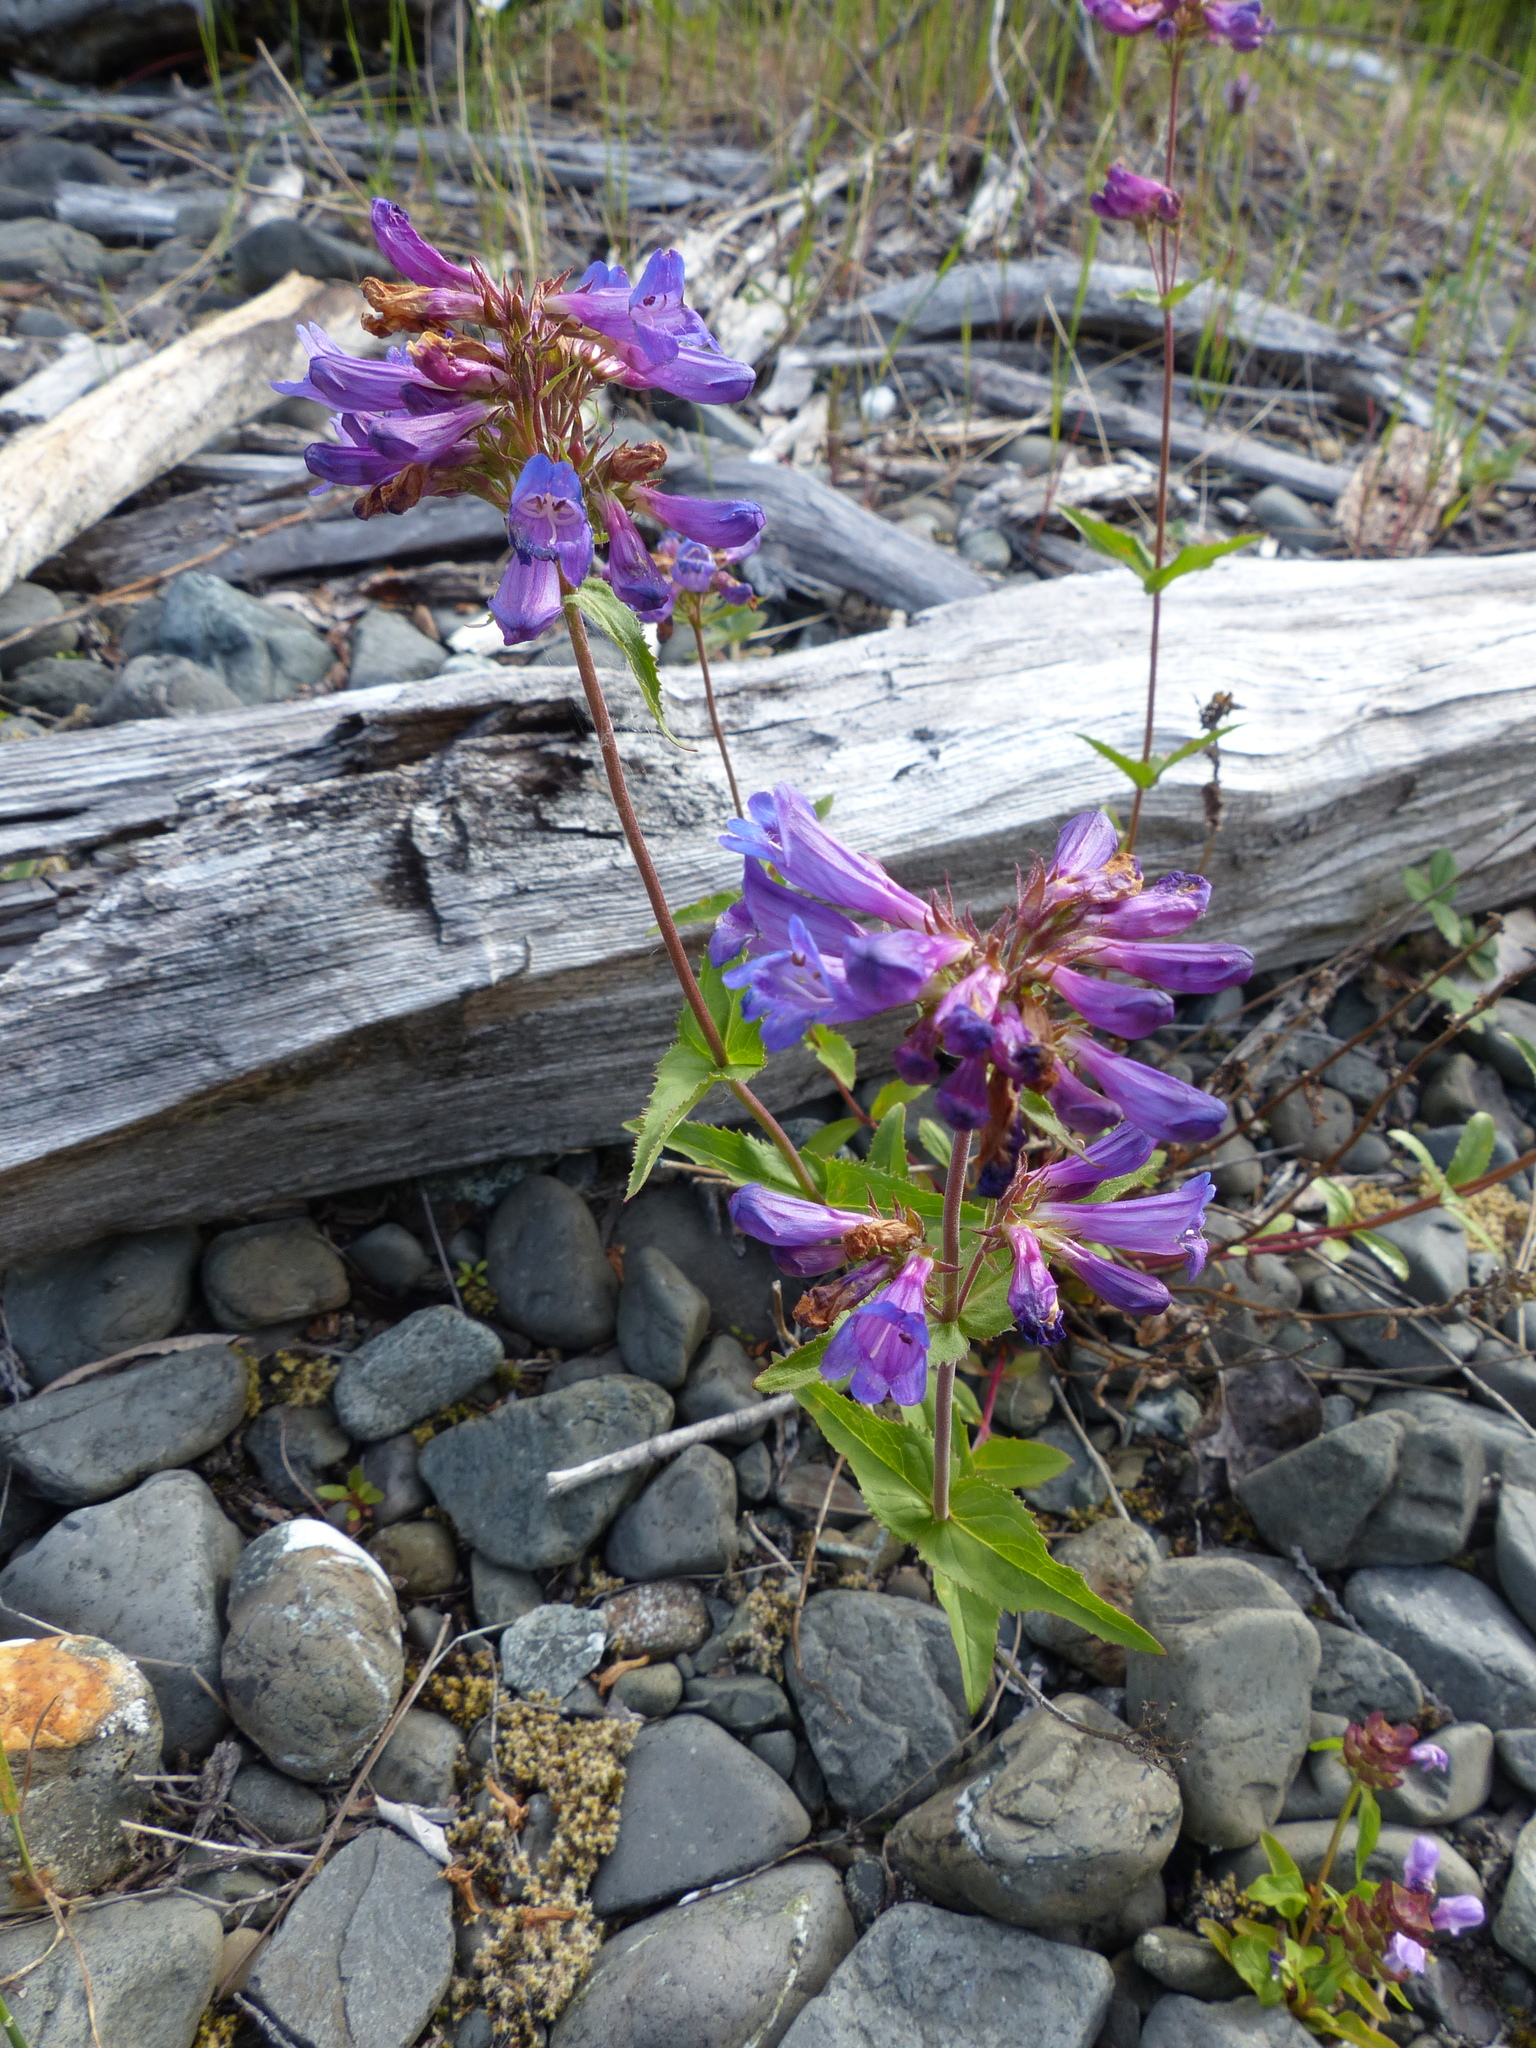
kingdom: Plantae
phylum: Tracheophyta
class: Magnoliopsida
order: Lamiales
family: Plantaginaceae
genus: Penstemon
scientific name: Penstemon serrulatus
